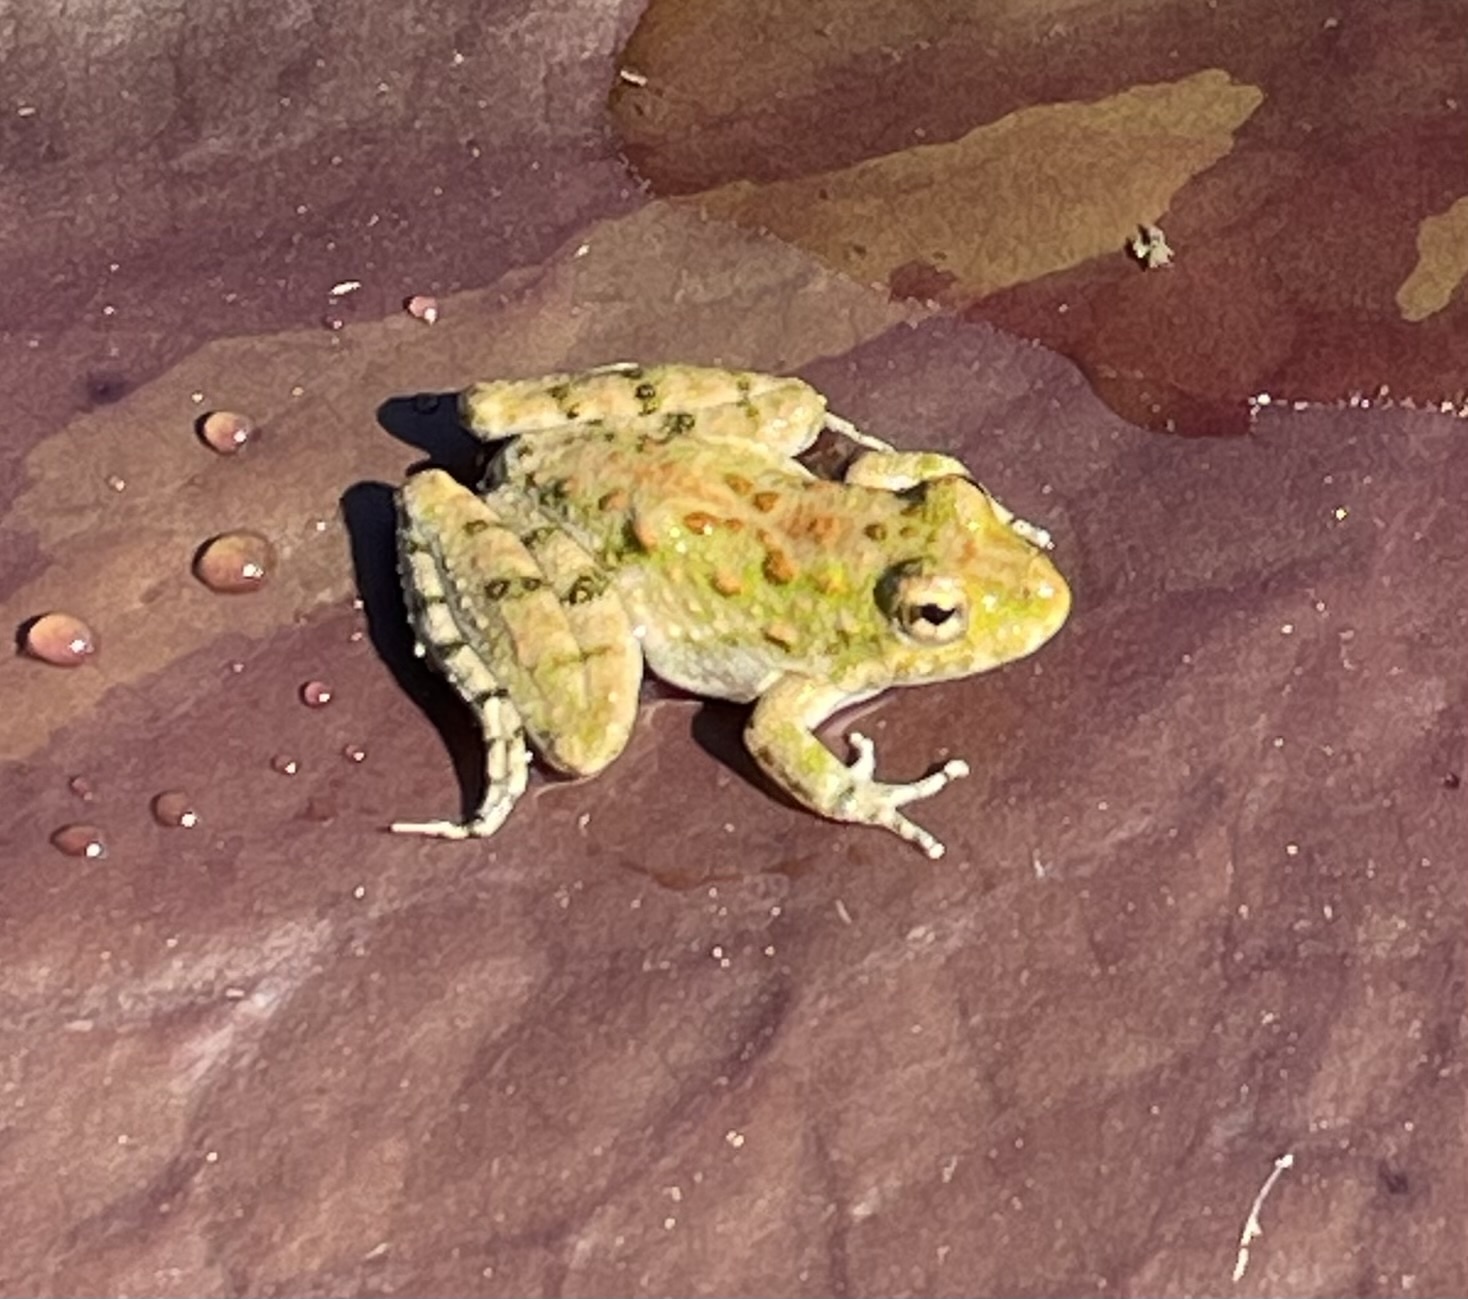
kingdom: Animalia
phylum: Chordata
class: Amphibia
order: Anura
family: Hylidae
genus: Acris
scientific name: Acris blanchardi
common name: Blanchard's cricket frog
